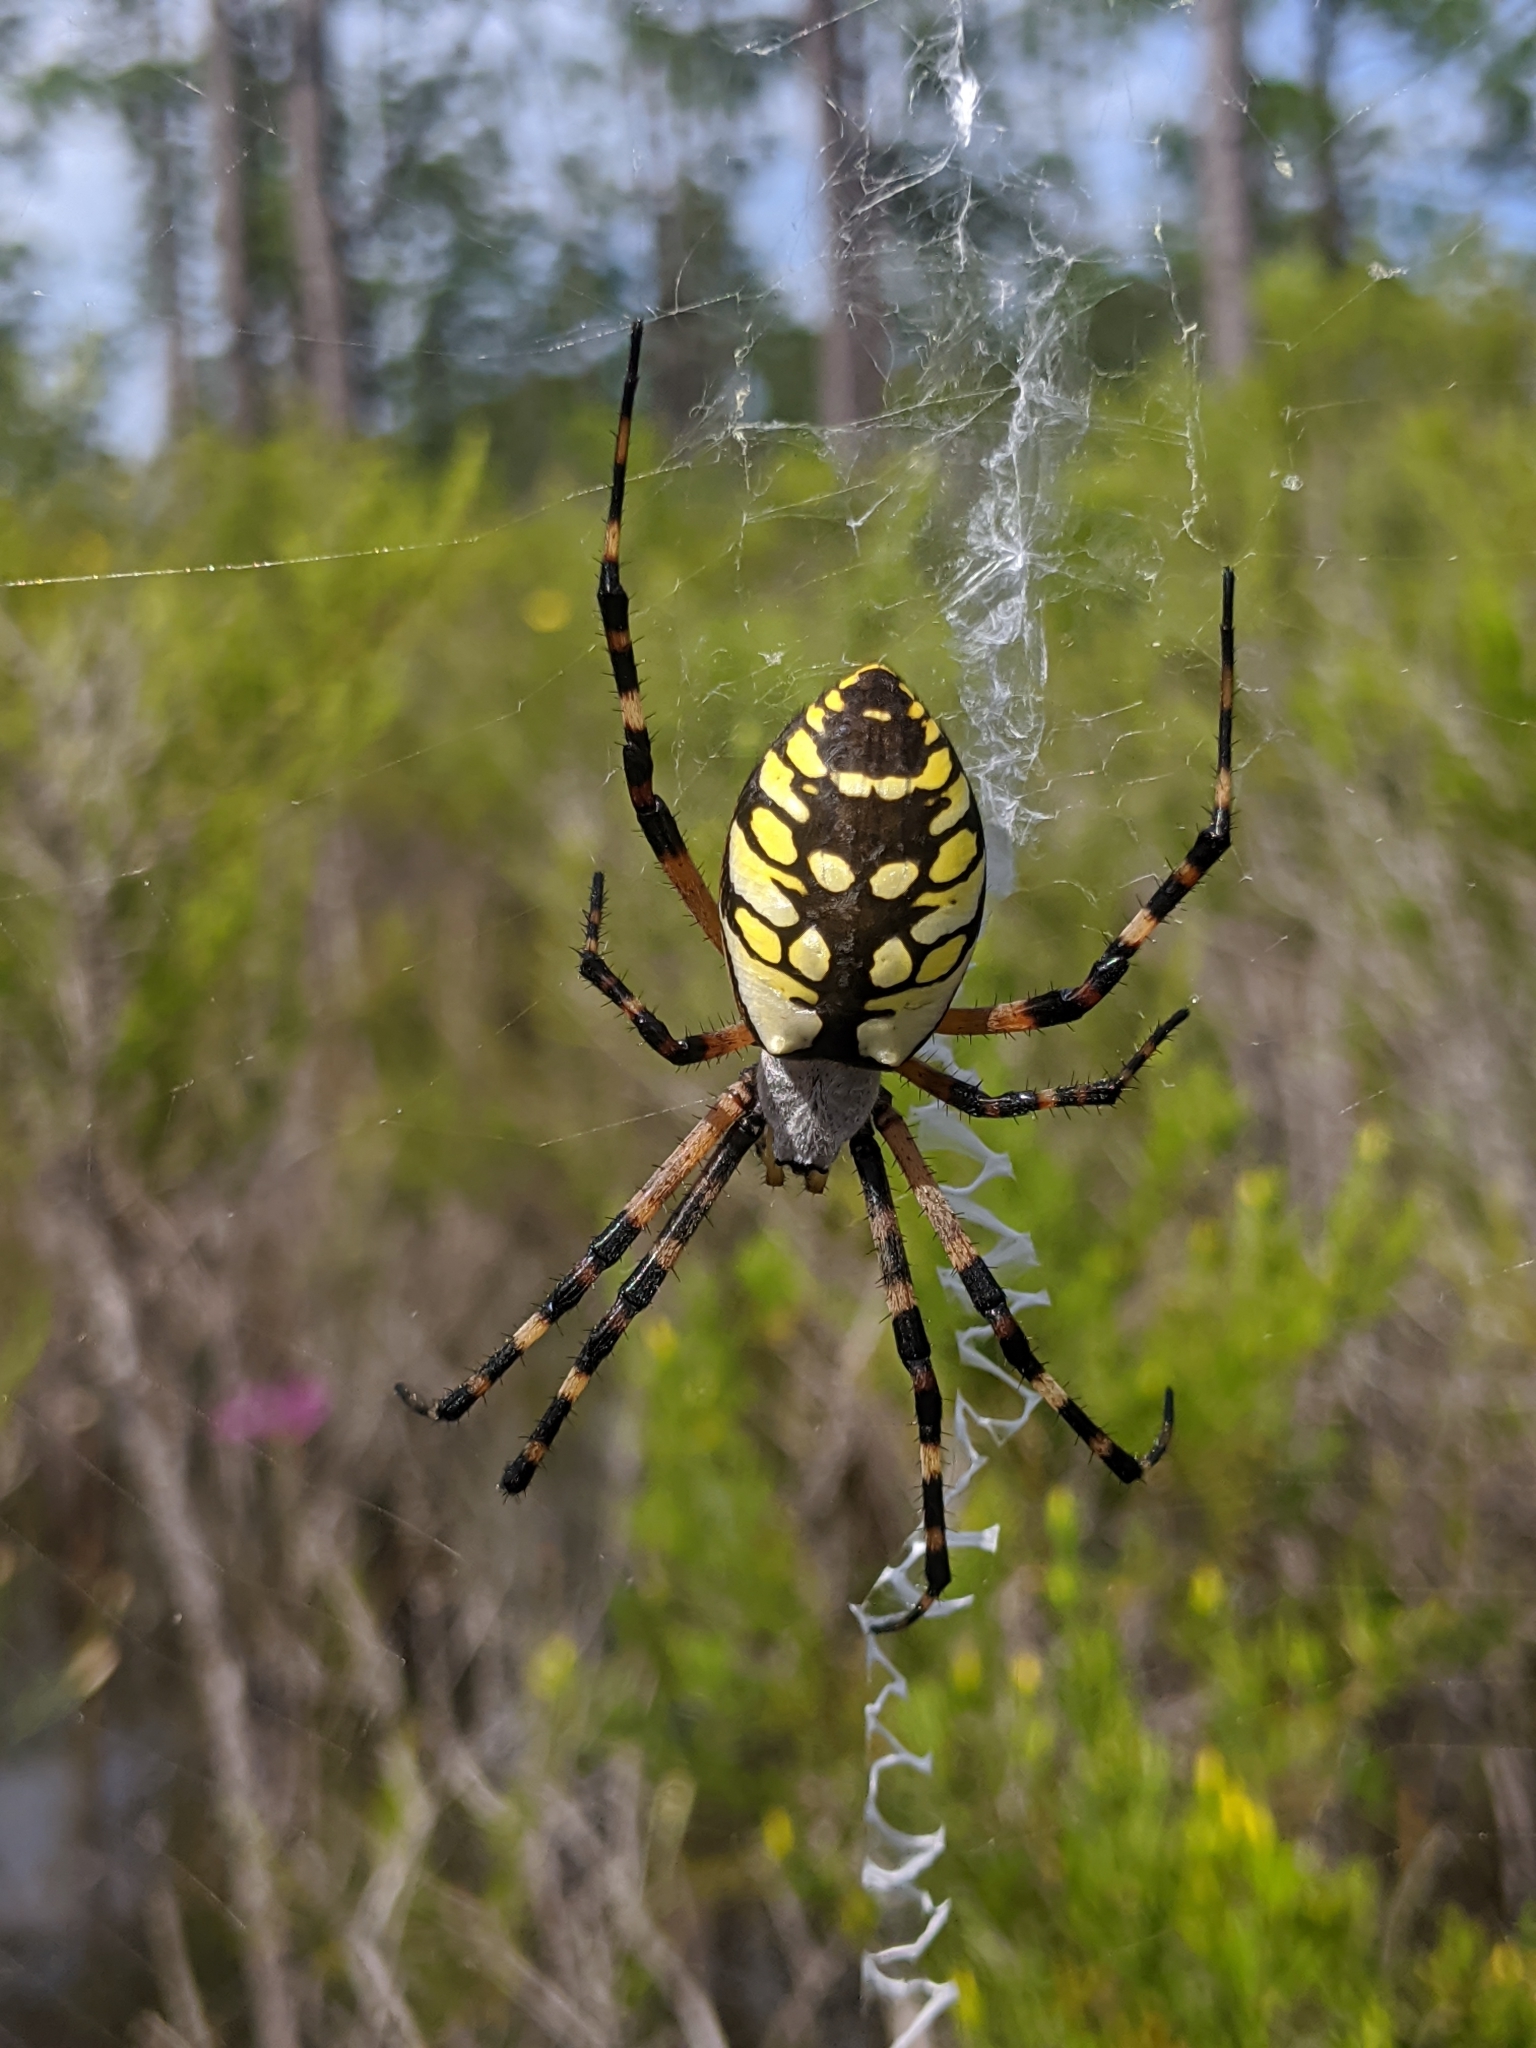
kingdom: Animalia
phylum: Arthropoda
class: Arachnida
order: Araneae
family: Araneidae
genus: Argiope
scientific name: Argiope aurantia
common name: Orb weavers
